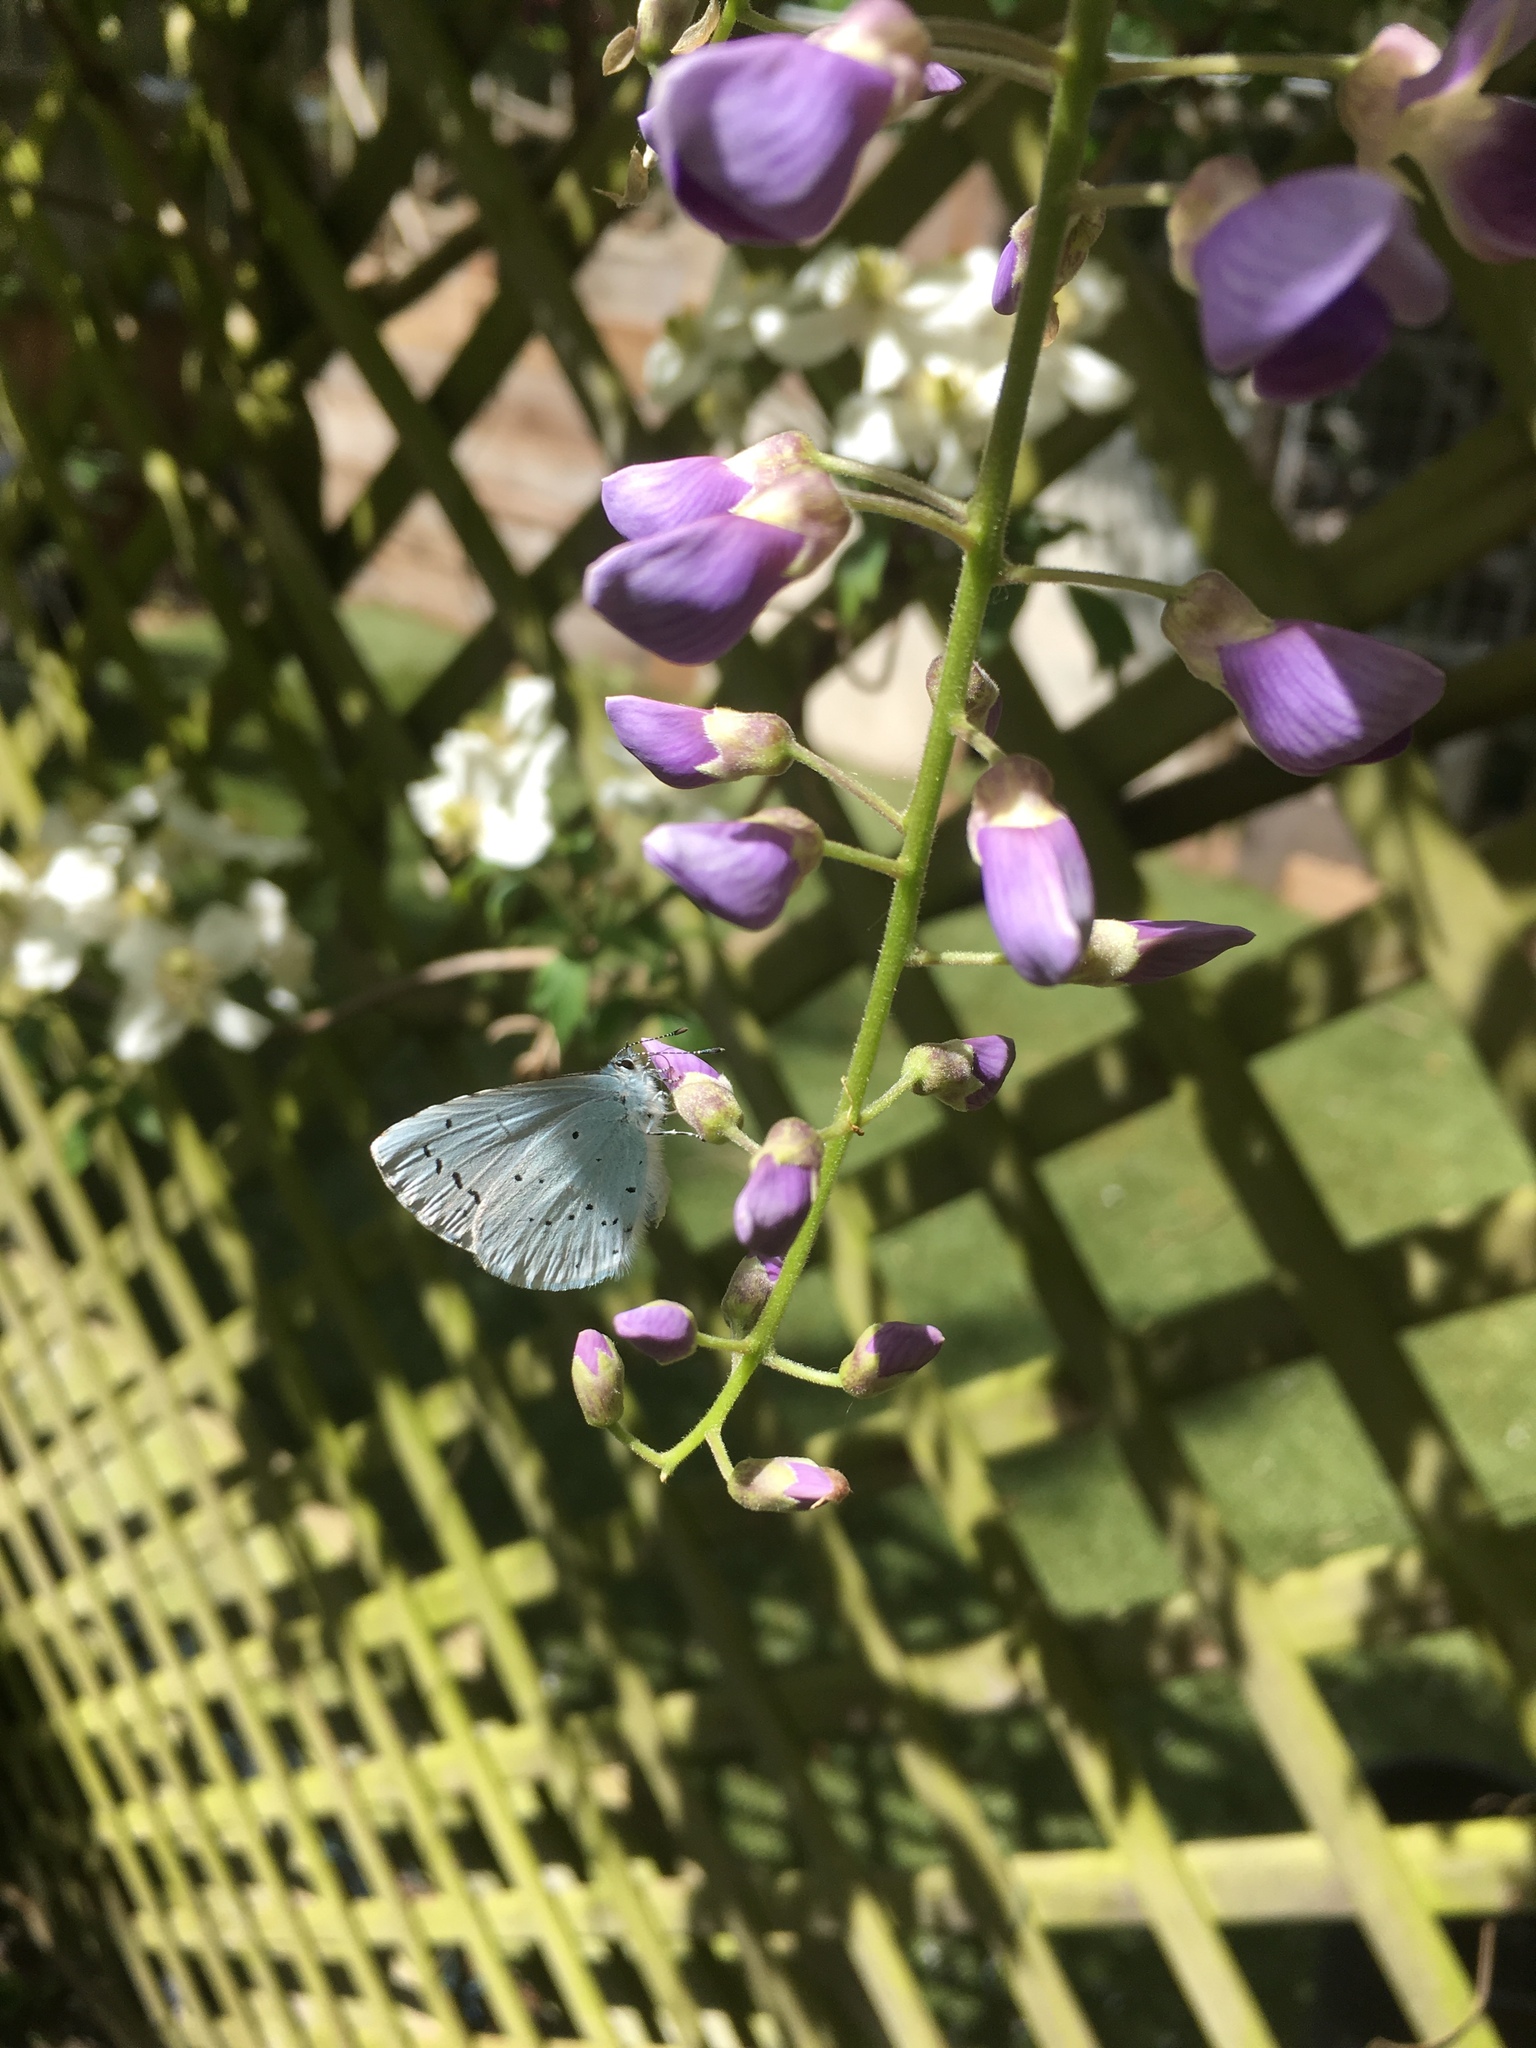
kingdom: Animalia
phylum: Arthropoda
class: Insecta
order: Lepidoptera
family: Lycaenidae
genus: Celastrina
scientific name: Celastrina argiolus
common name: Holly blue
